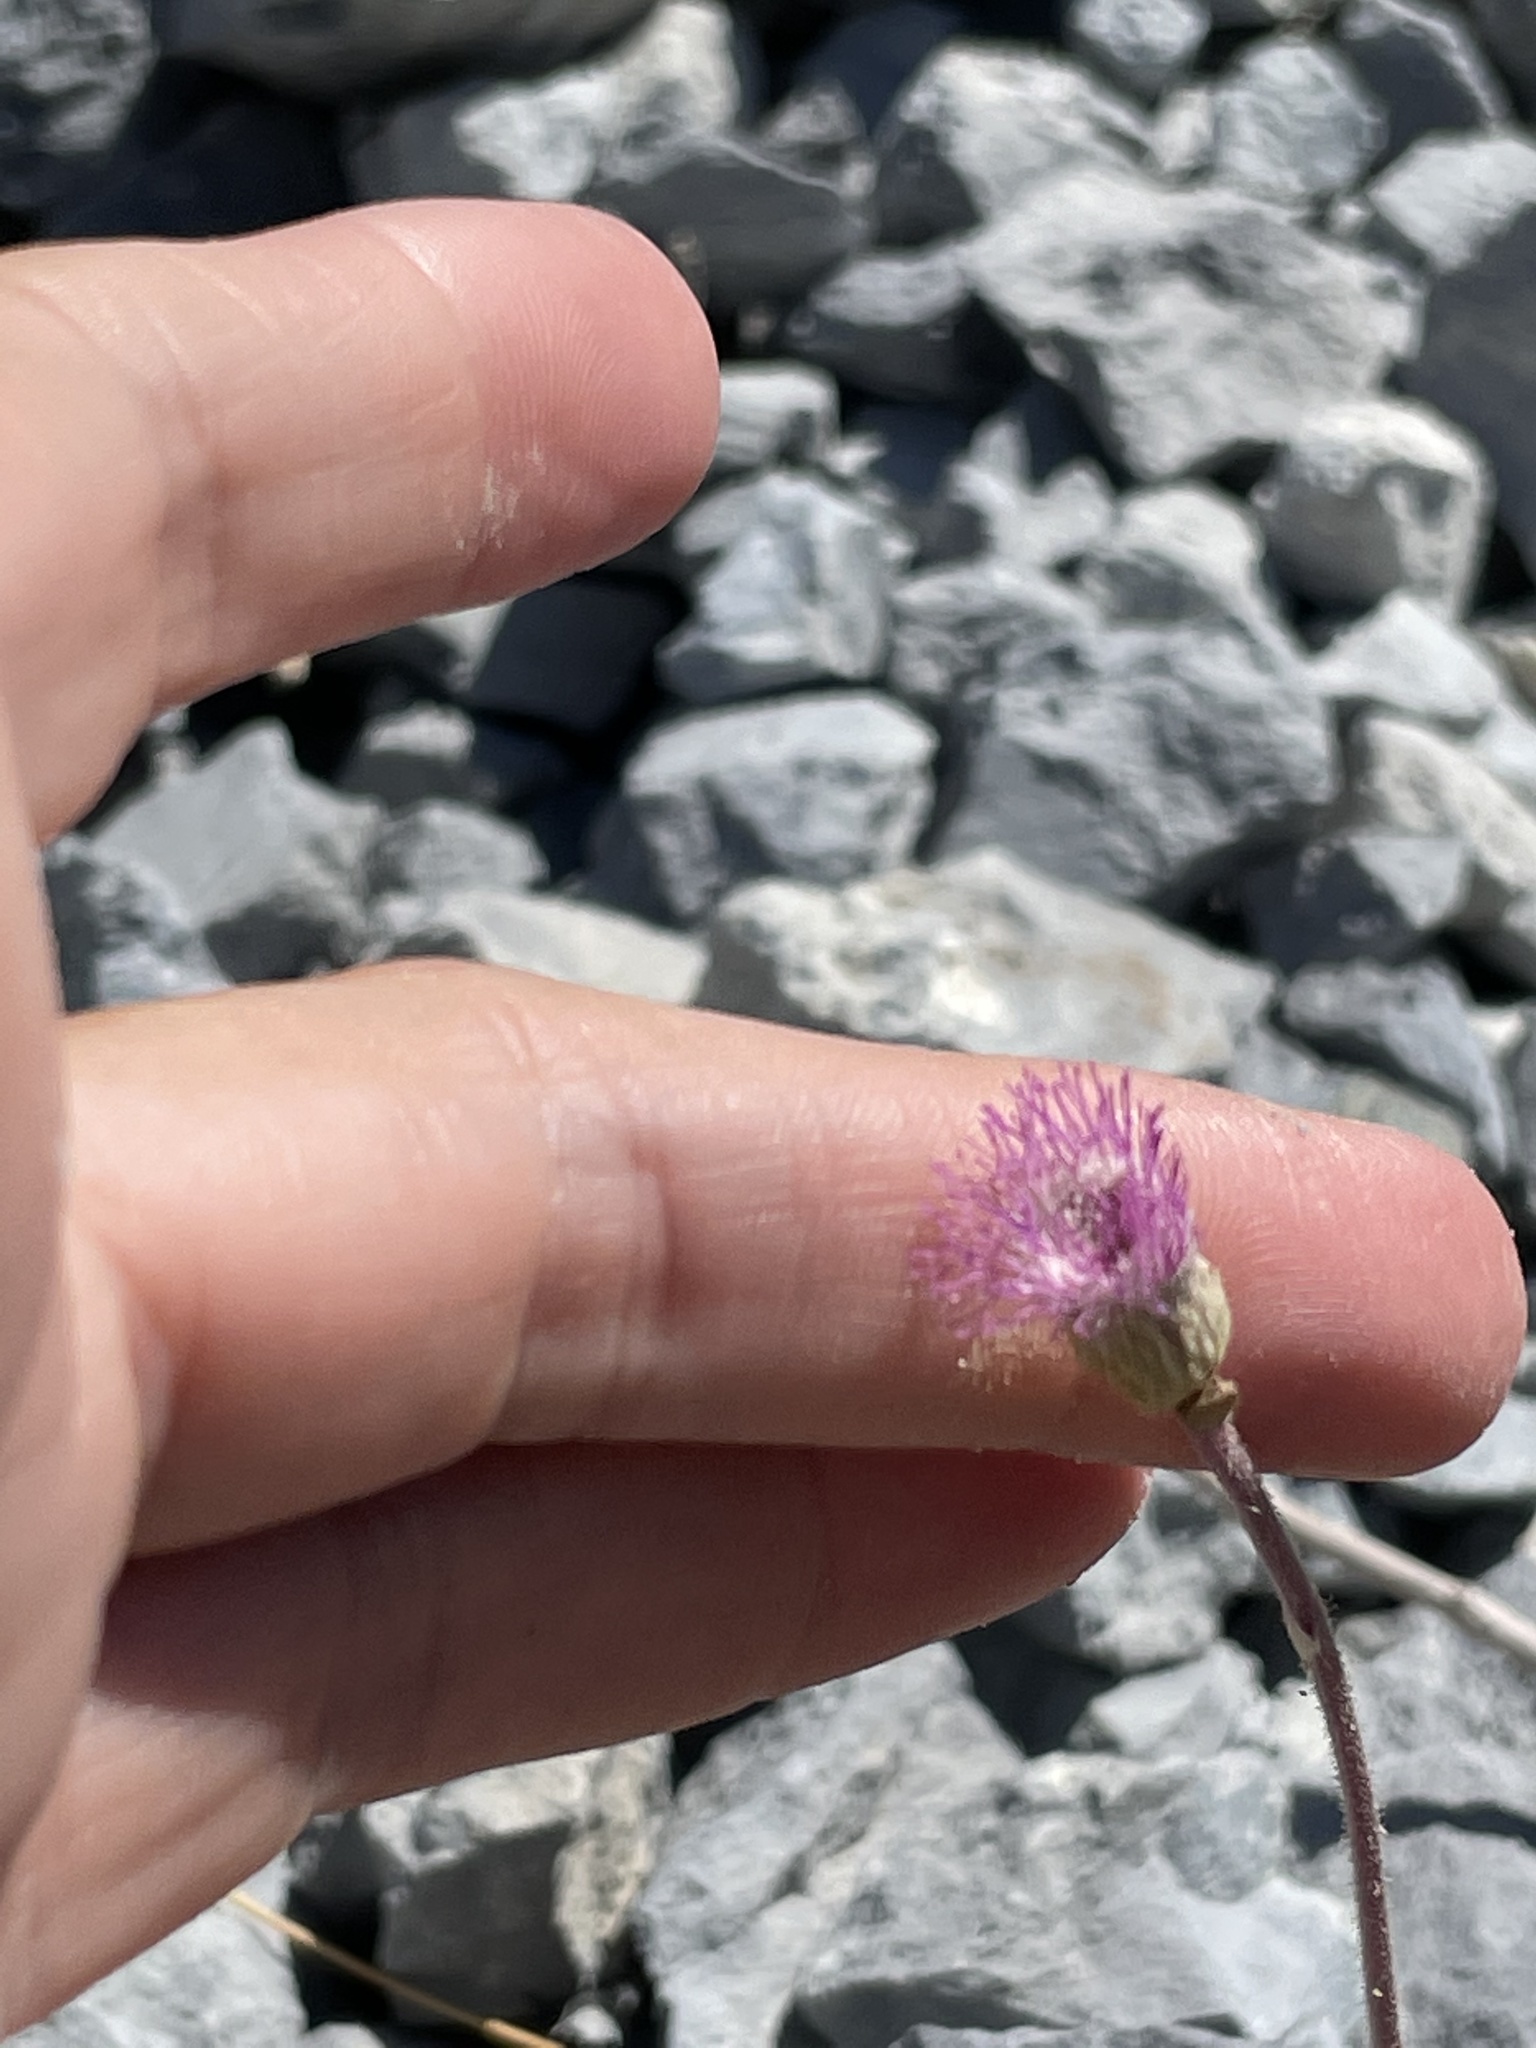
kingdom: Plantae
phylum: Tracheophyta
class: Magnoliopsida
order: Asterales
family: Asteraceae
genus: Hofmeisteria
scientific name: Hofmeisteria fasciculata
